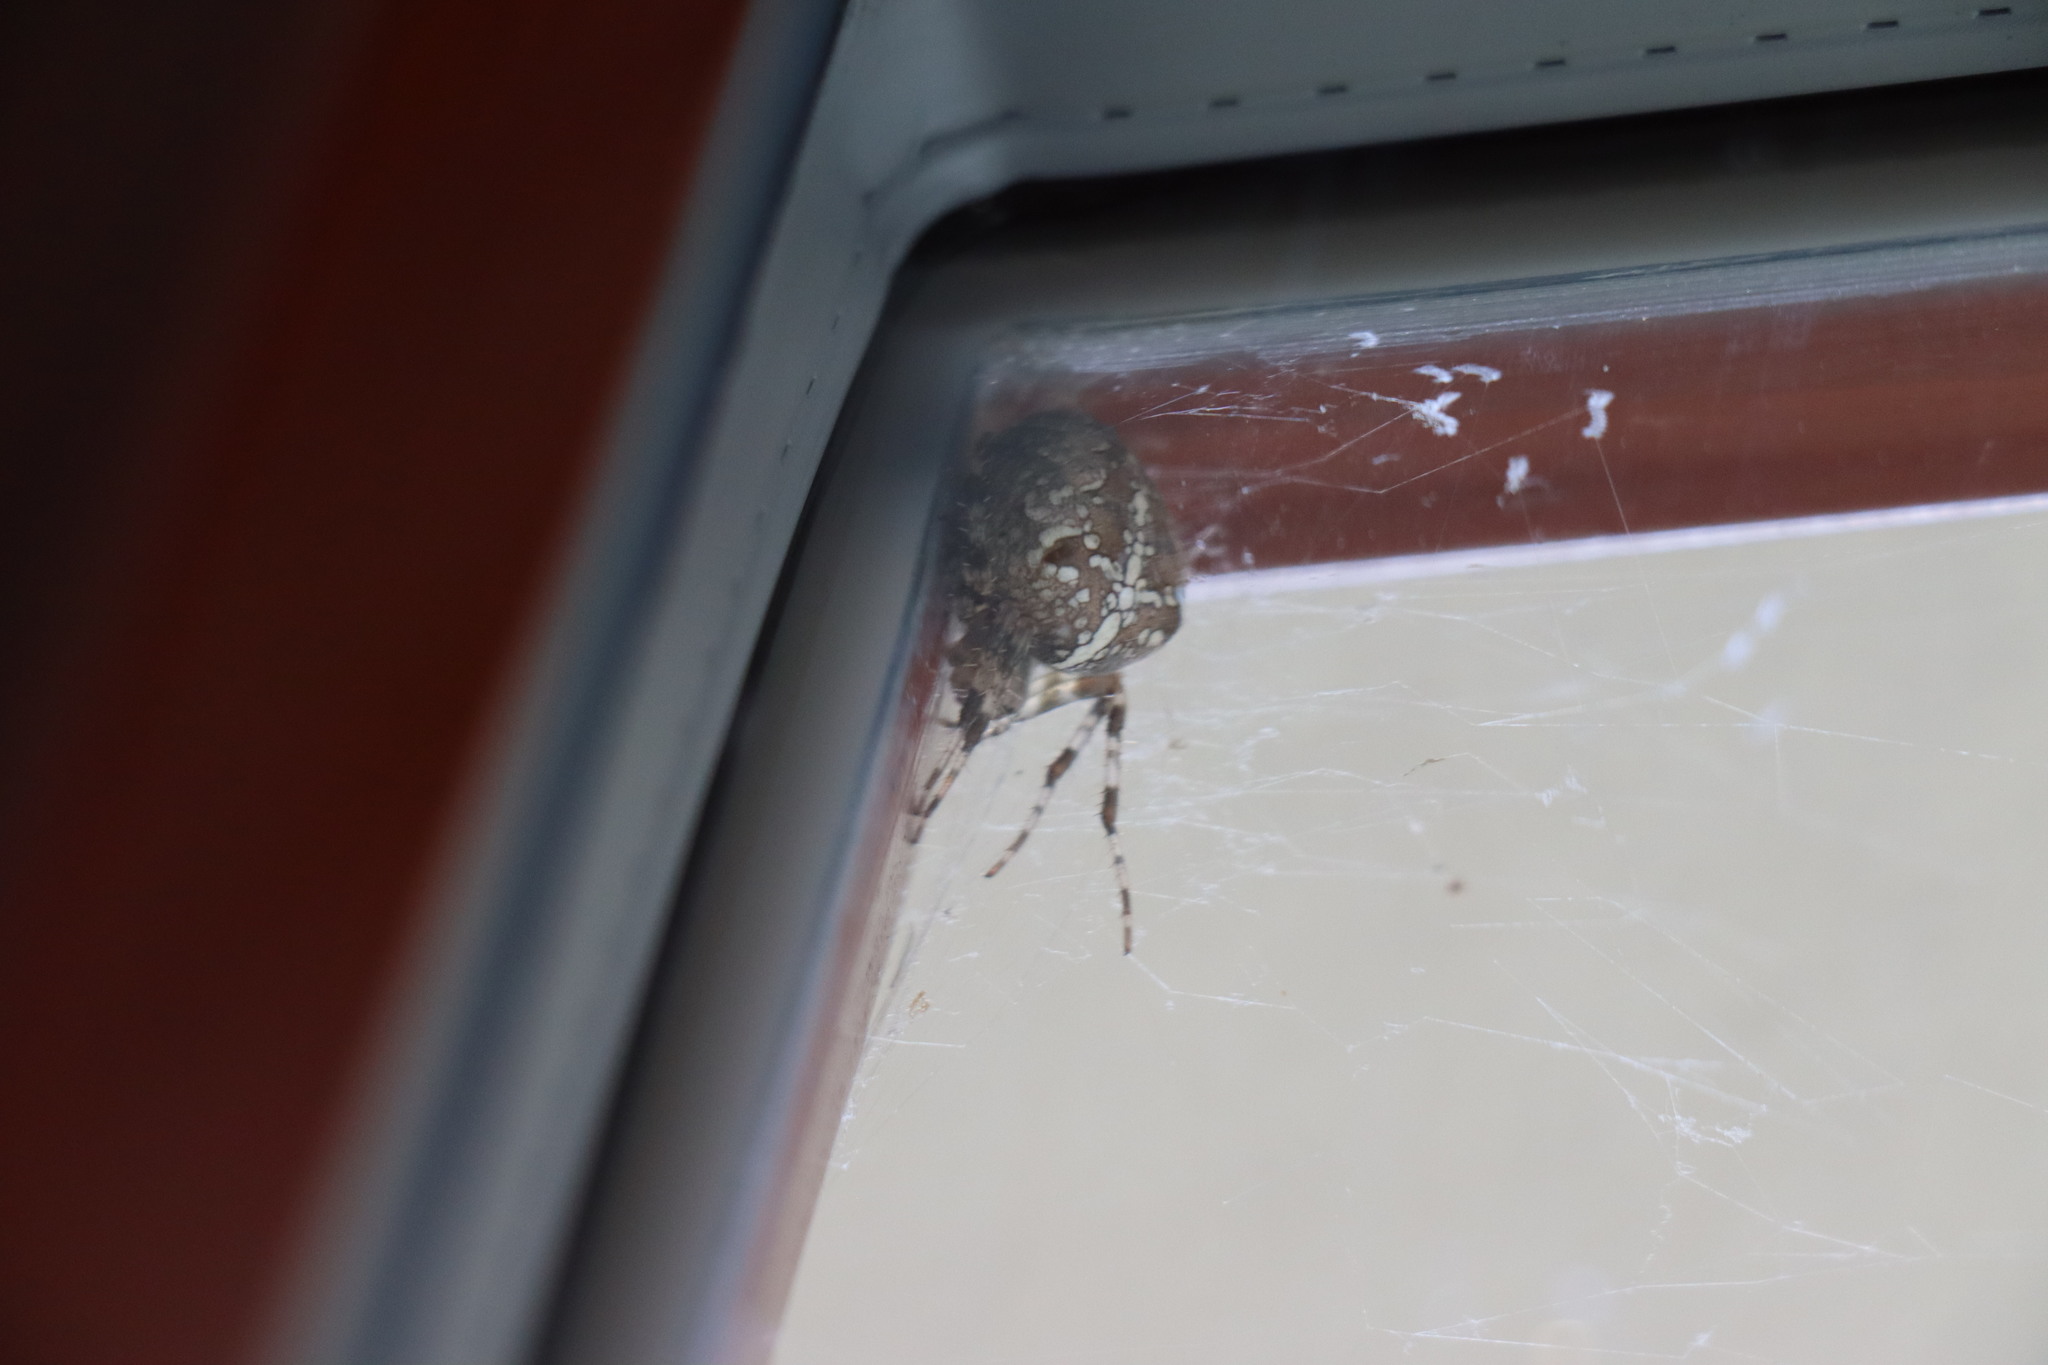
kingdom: Animalia
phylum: Arthropoda
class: Arachnida
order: Araneae
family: Araneidae
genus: Araneus
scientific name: Araneus diadematus
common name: Cross orbweaver
